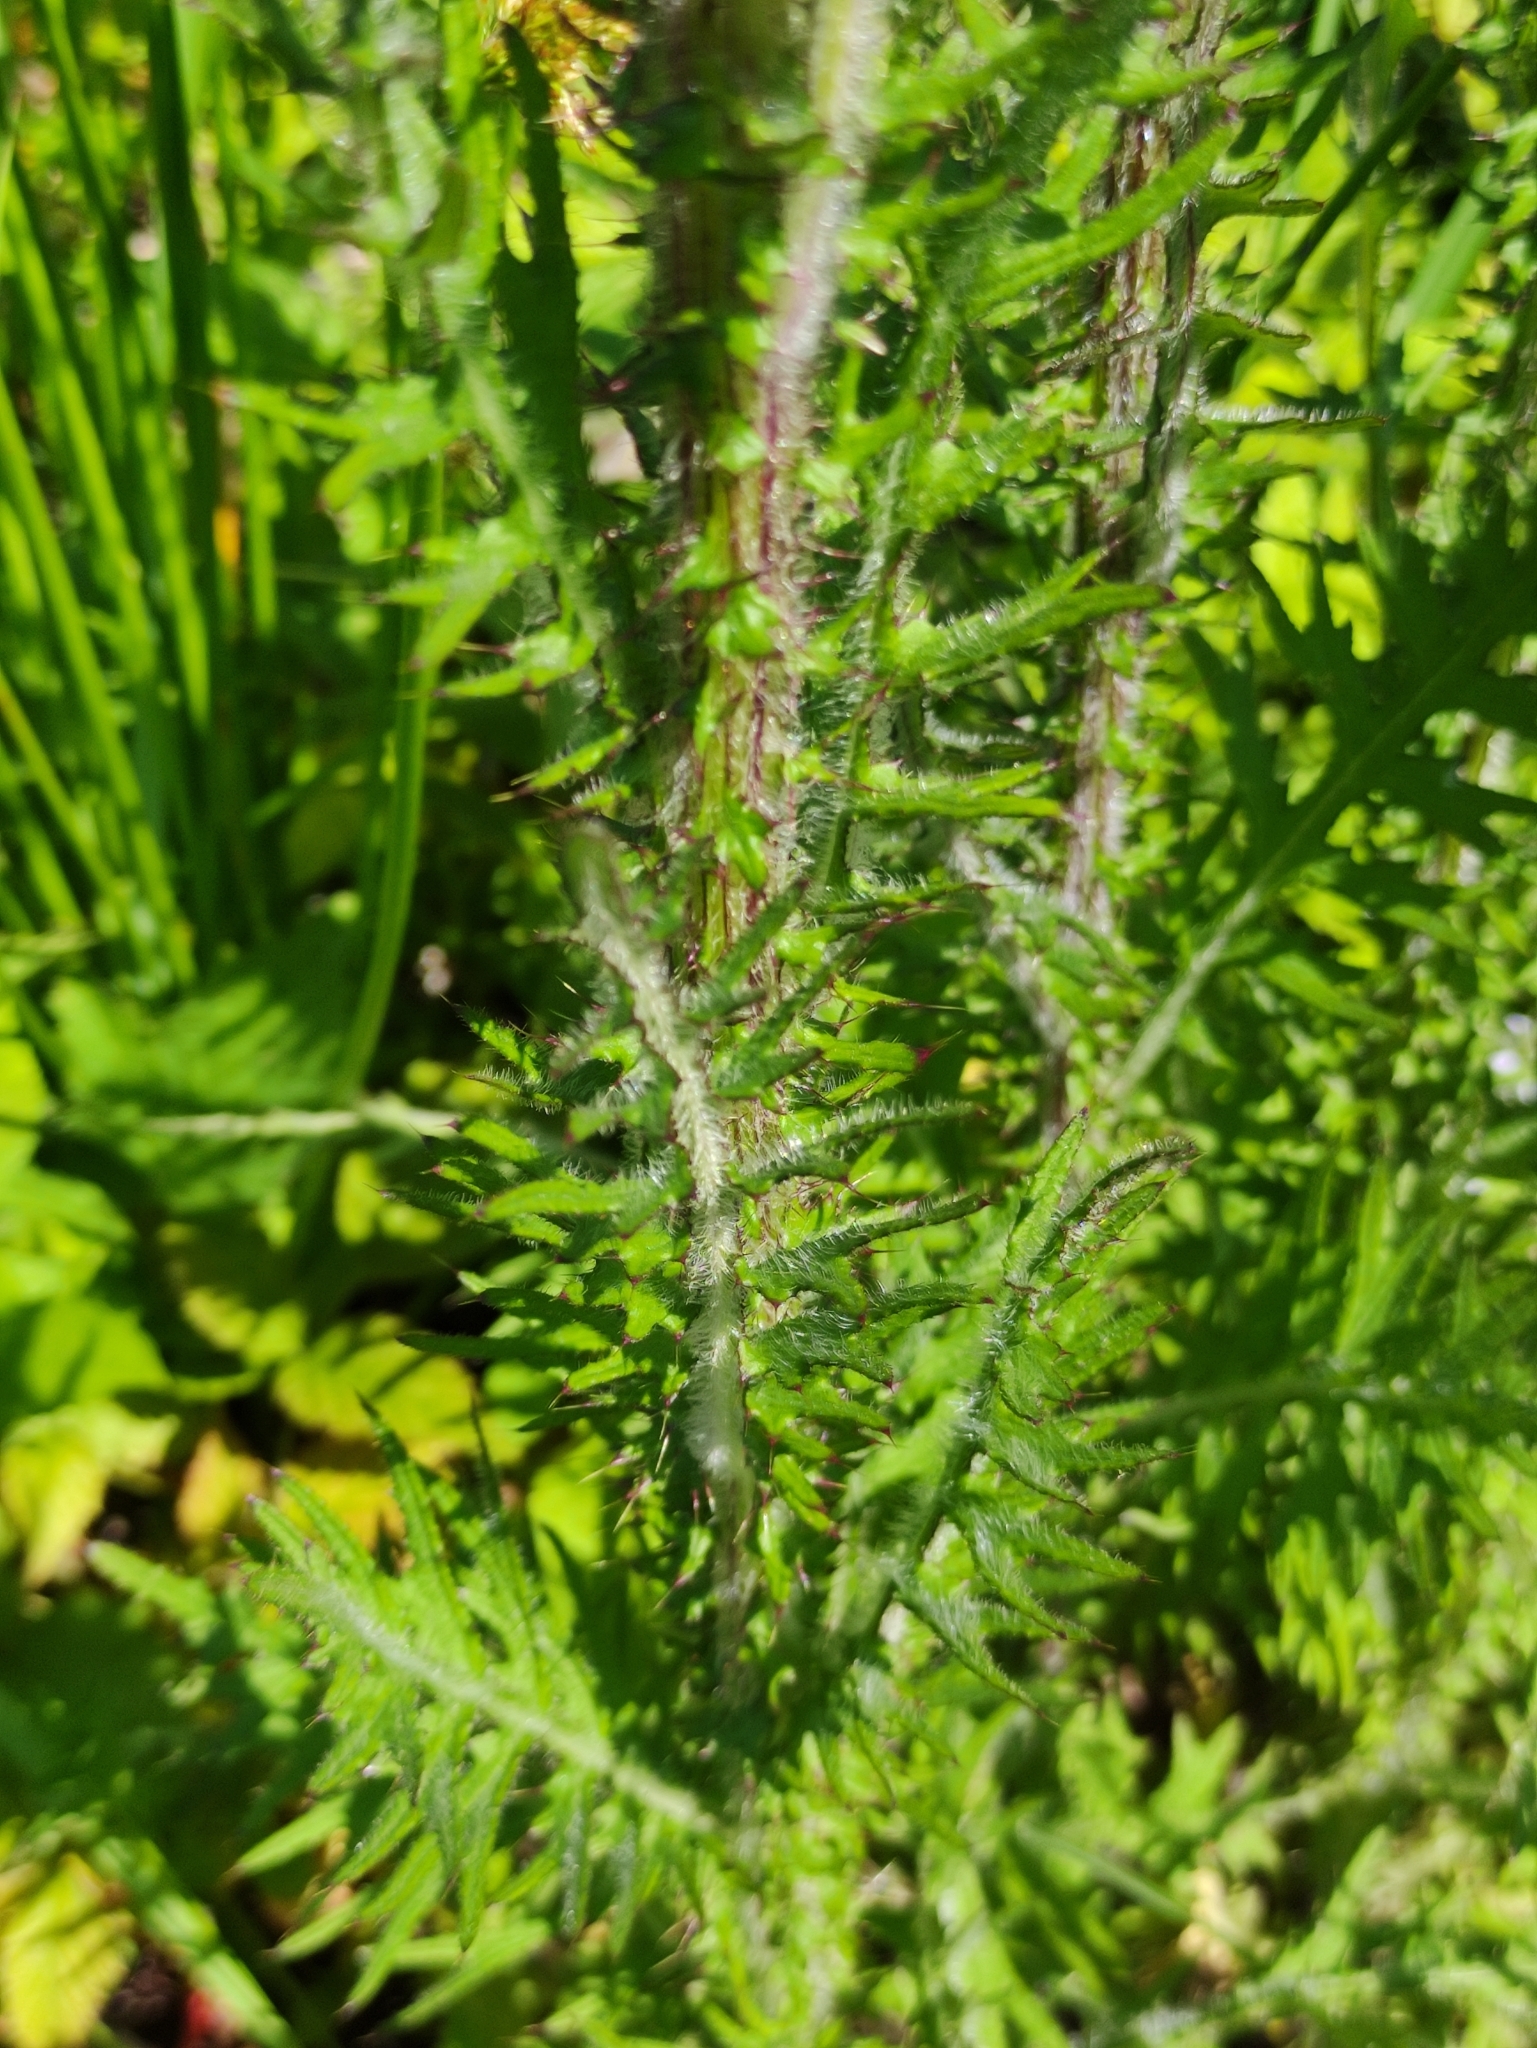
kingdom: Plantae
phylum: Tracheophyta
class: Magnoliopsida
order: Asterales
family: Asteraceae
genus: Cirsium
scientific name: Cirsium palustre
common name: Marsh thistle
